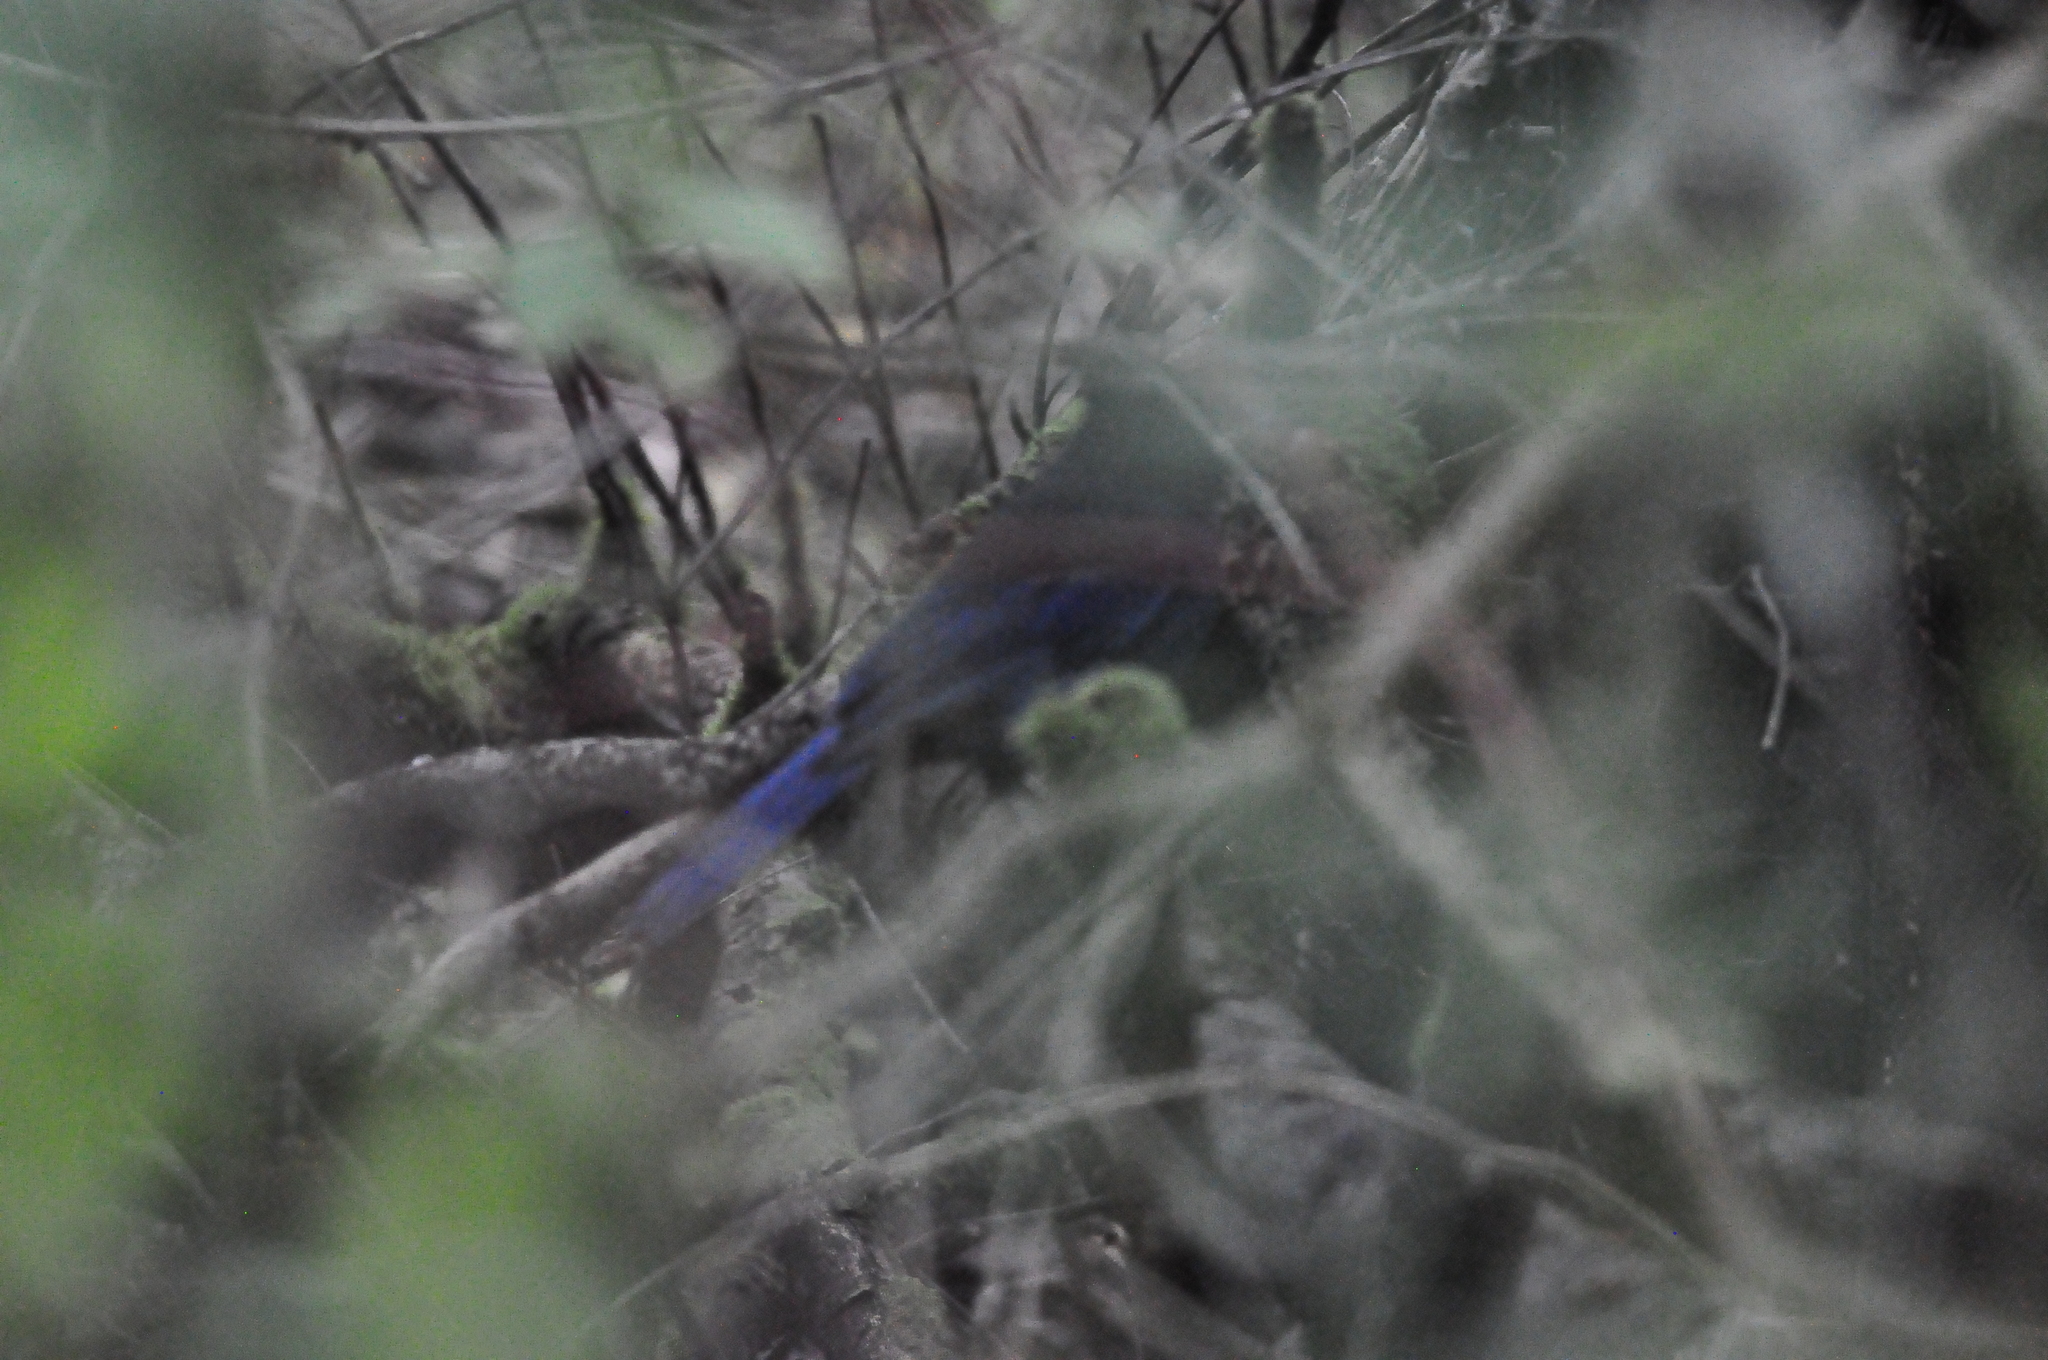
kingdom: Animalia
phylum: Chordata
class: Aves
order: Passeriformes
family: Corvidae
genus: Cyanocitta
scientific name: Cyanocitta stelleri
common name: Steller's jay
